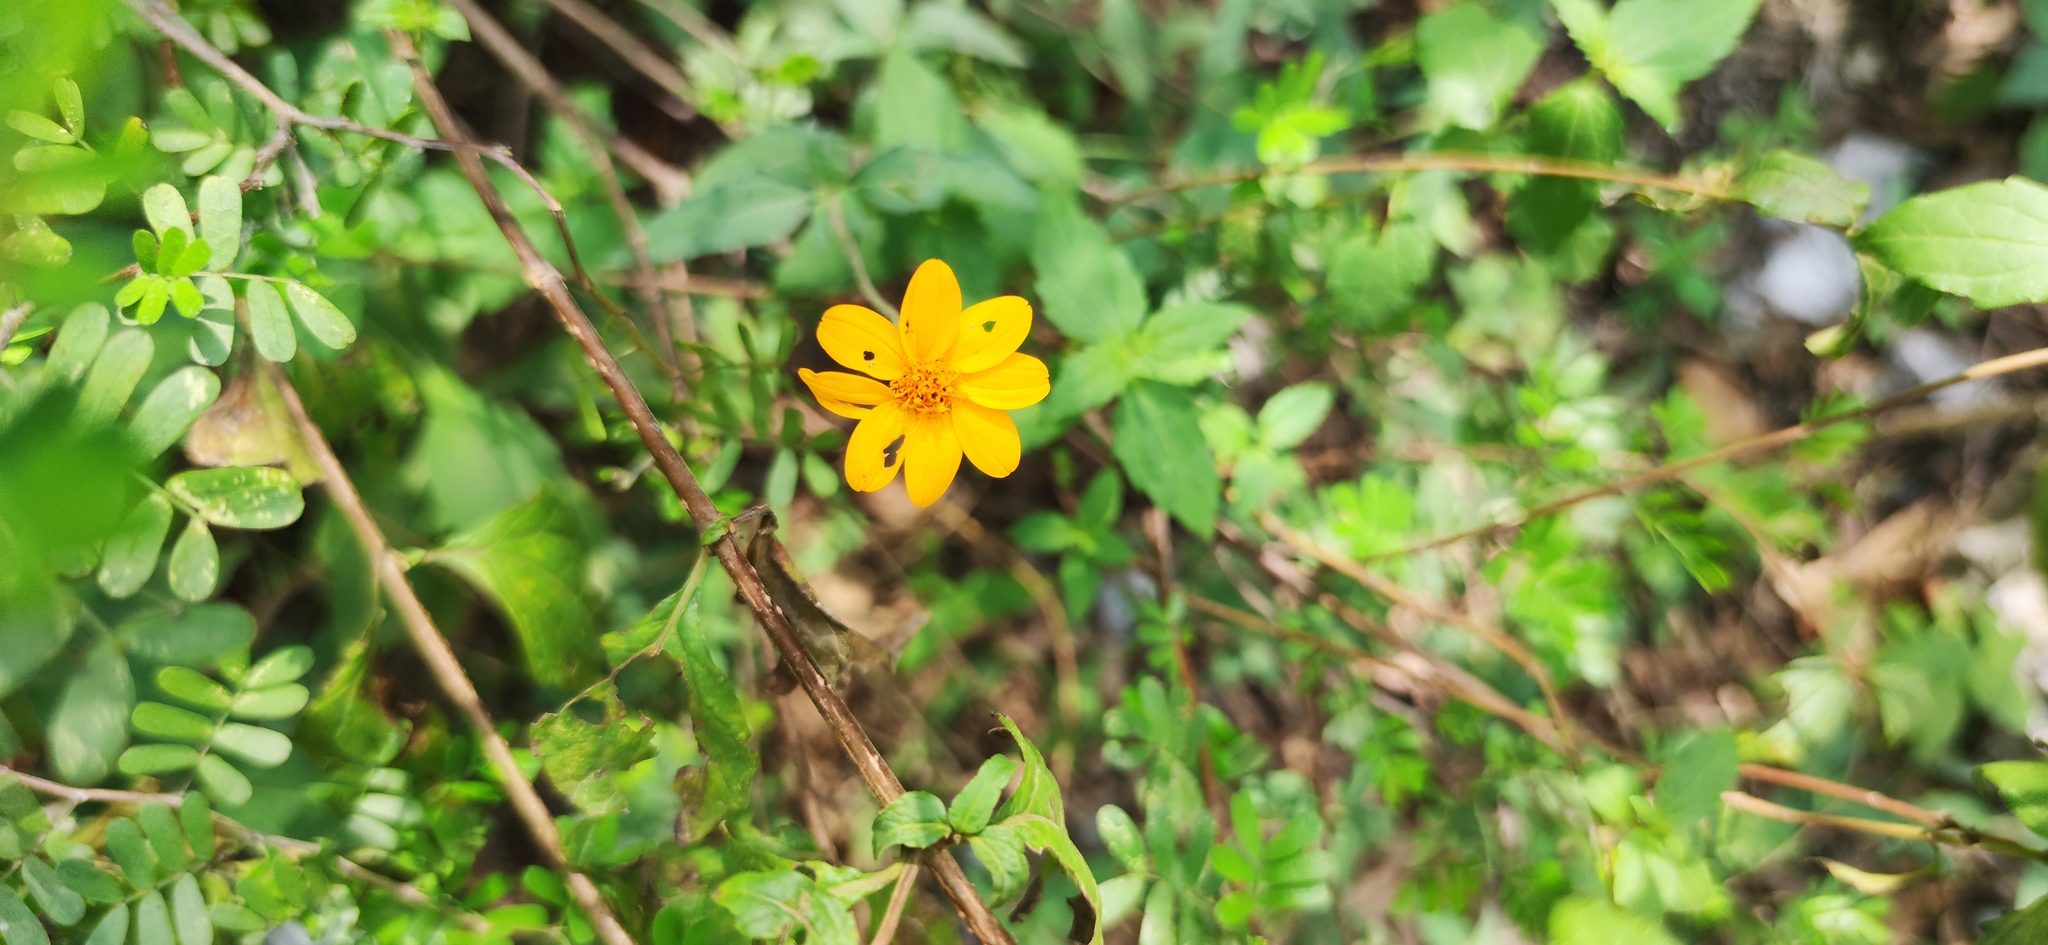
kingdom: Plantae
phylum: Tracheophyta
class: Magnoliopsida
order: Asterales
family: Asteraceae
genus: Wedelia
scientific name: Wedelia acapulcensis
